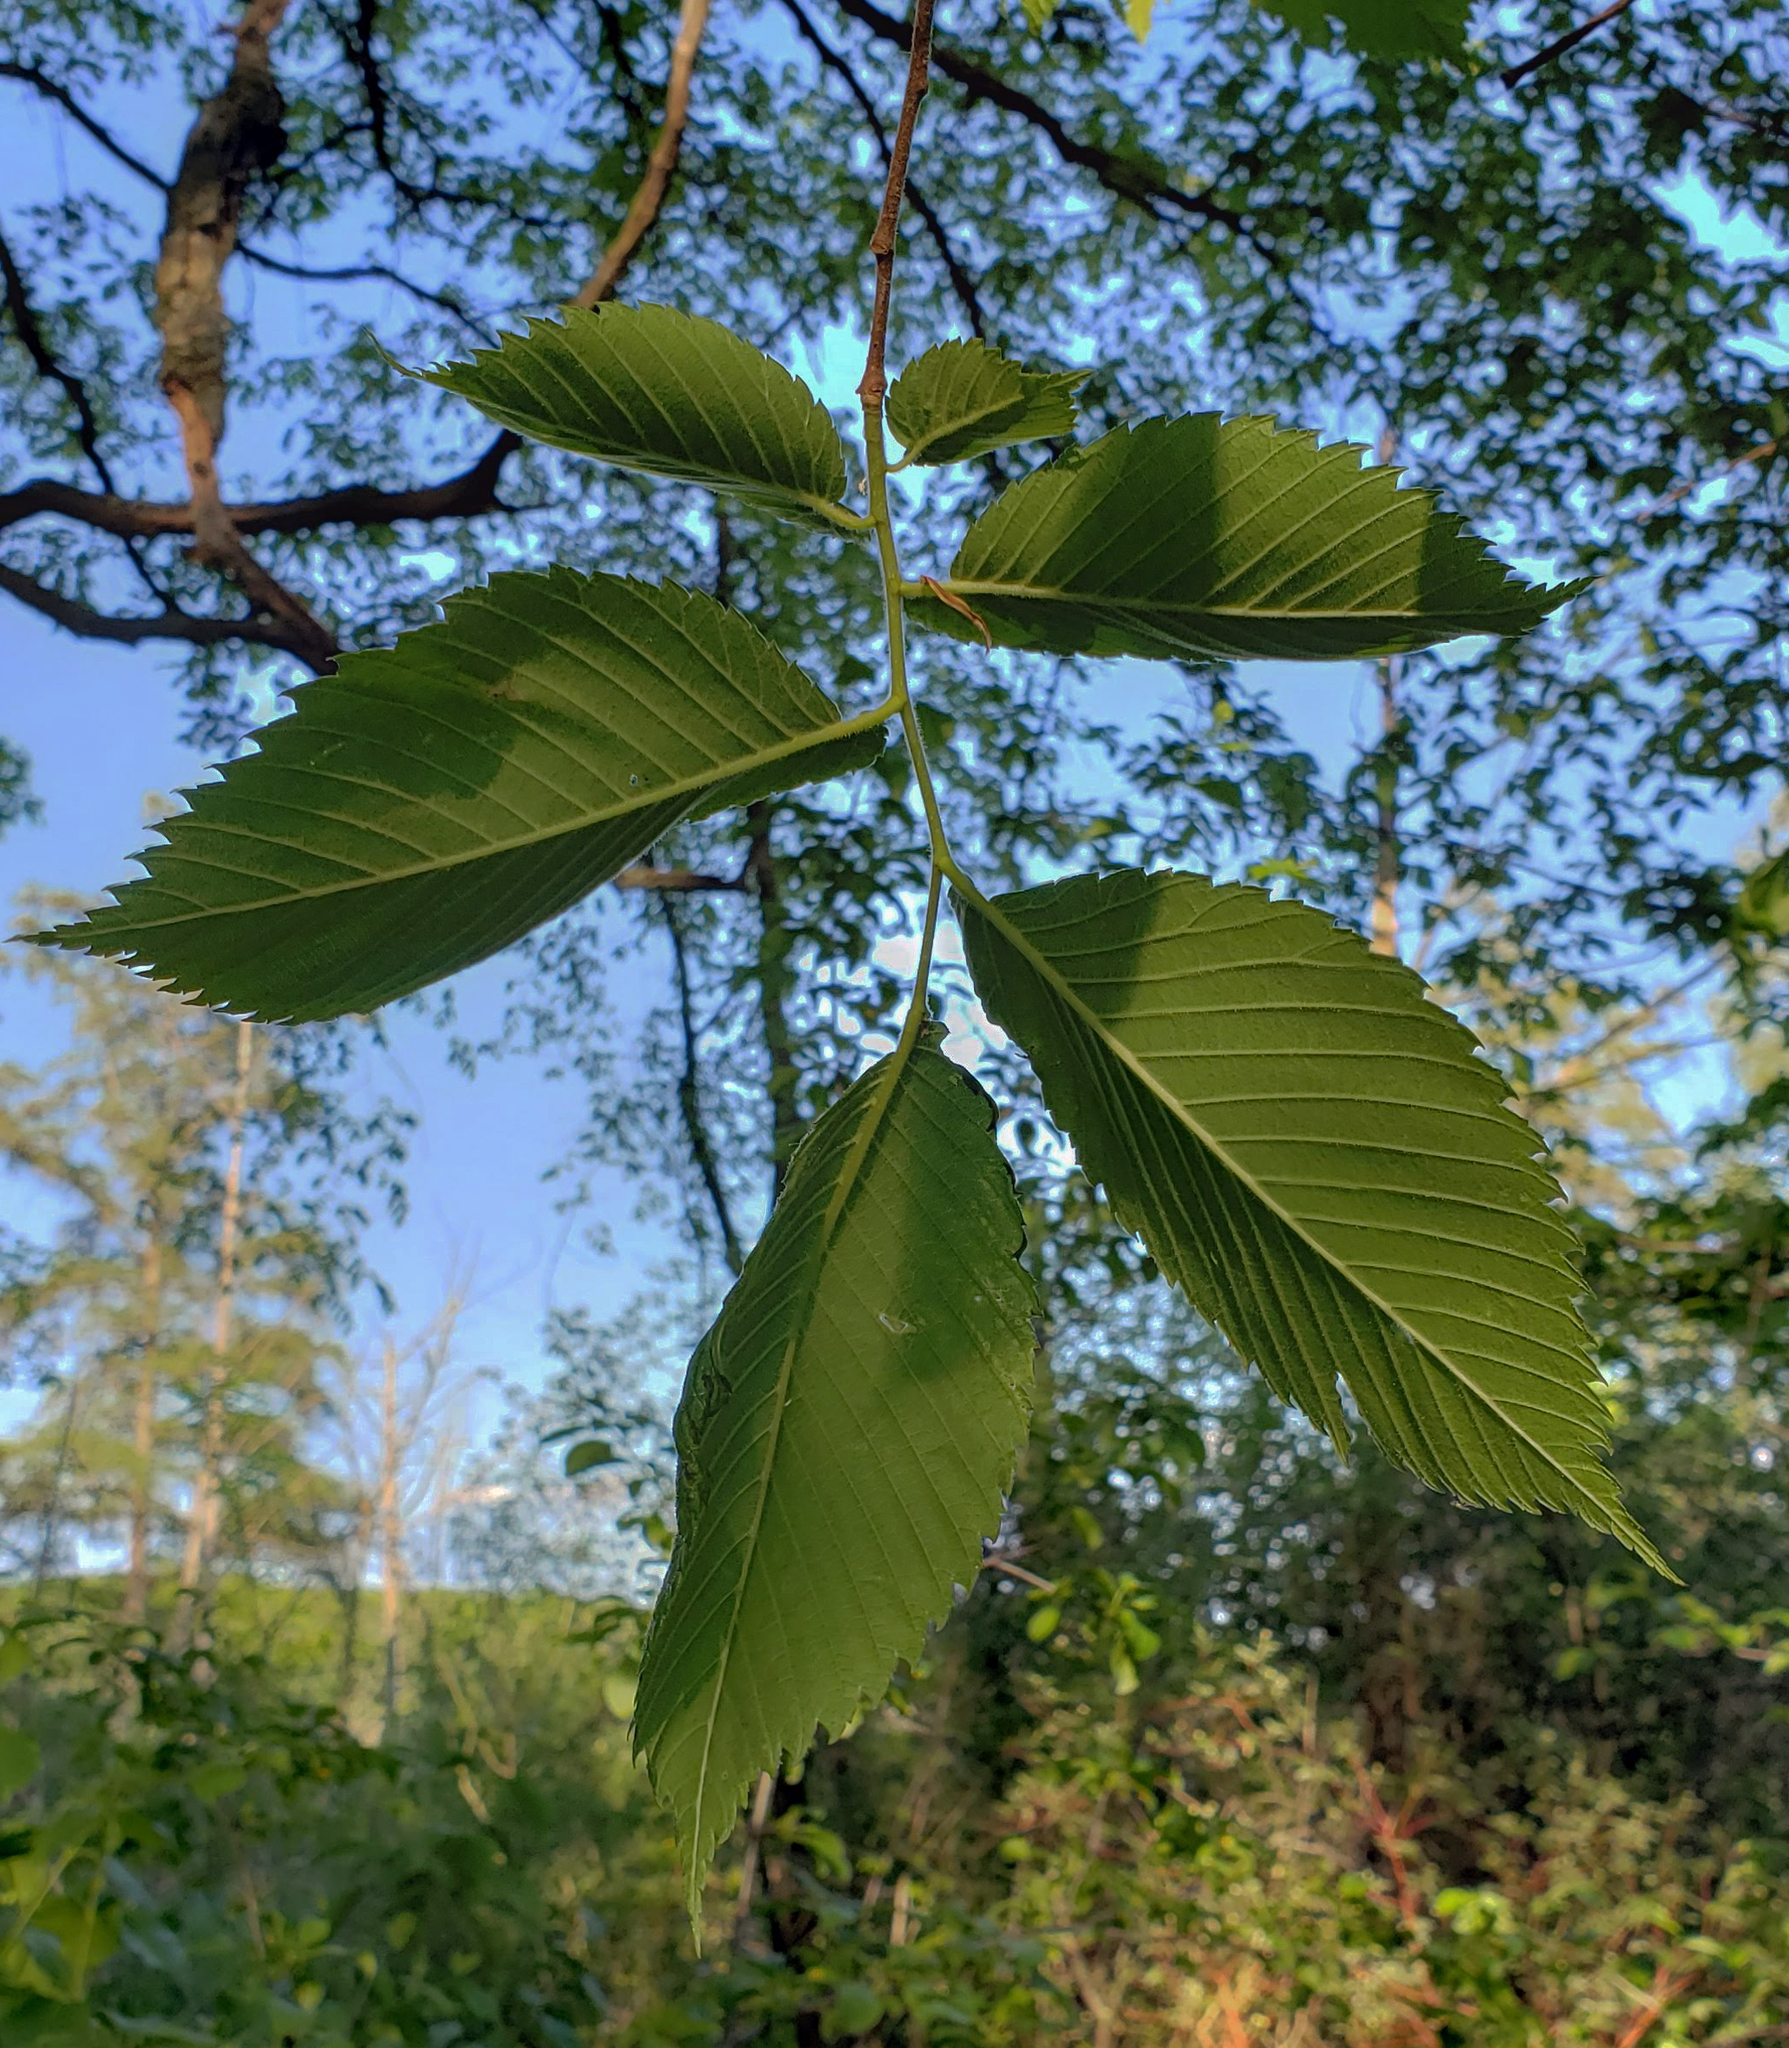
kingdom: Plantae
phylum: Tracheophyta
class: Magnoliopsida
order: Rosales
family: Ulmaceae
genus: Ulmus
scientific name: Ulmus americana
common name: American elm
